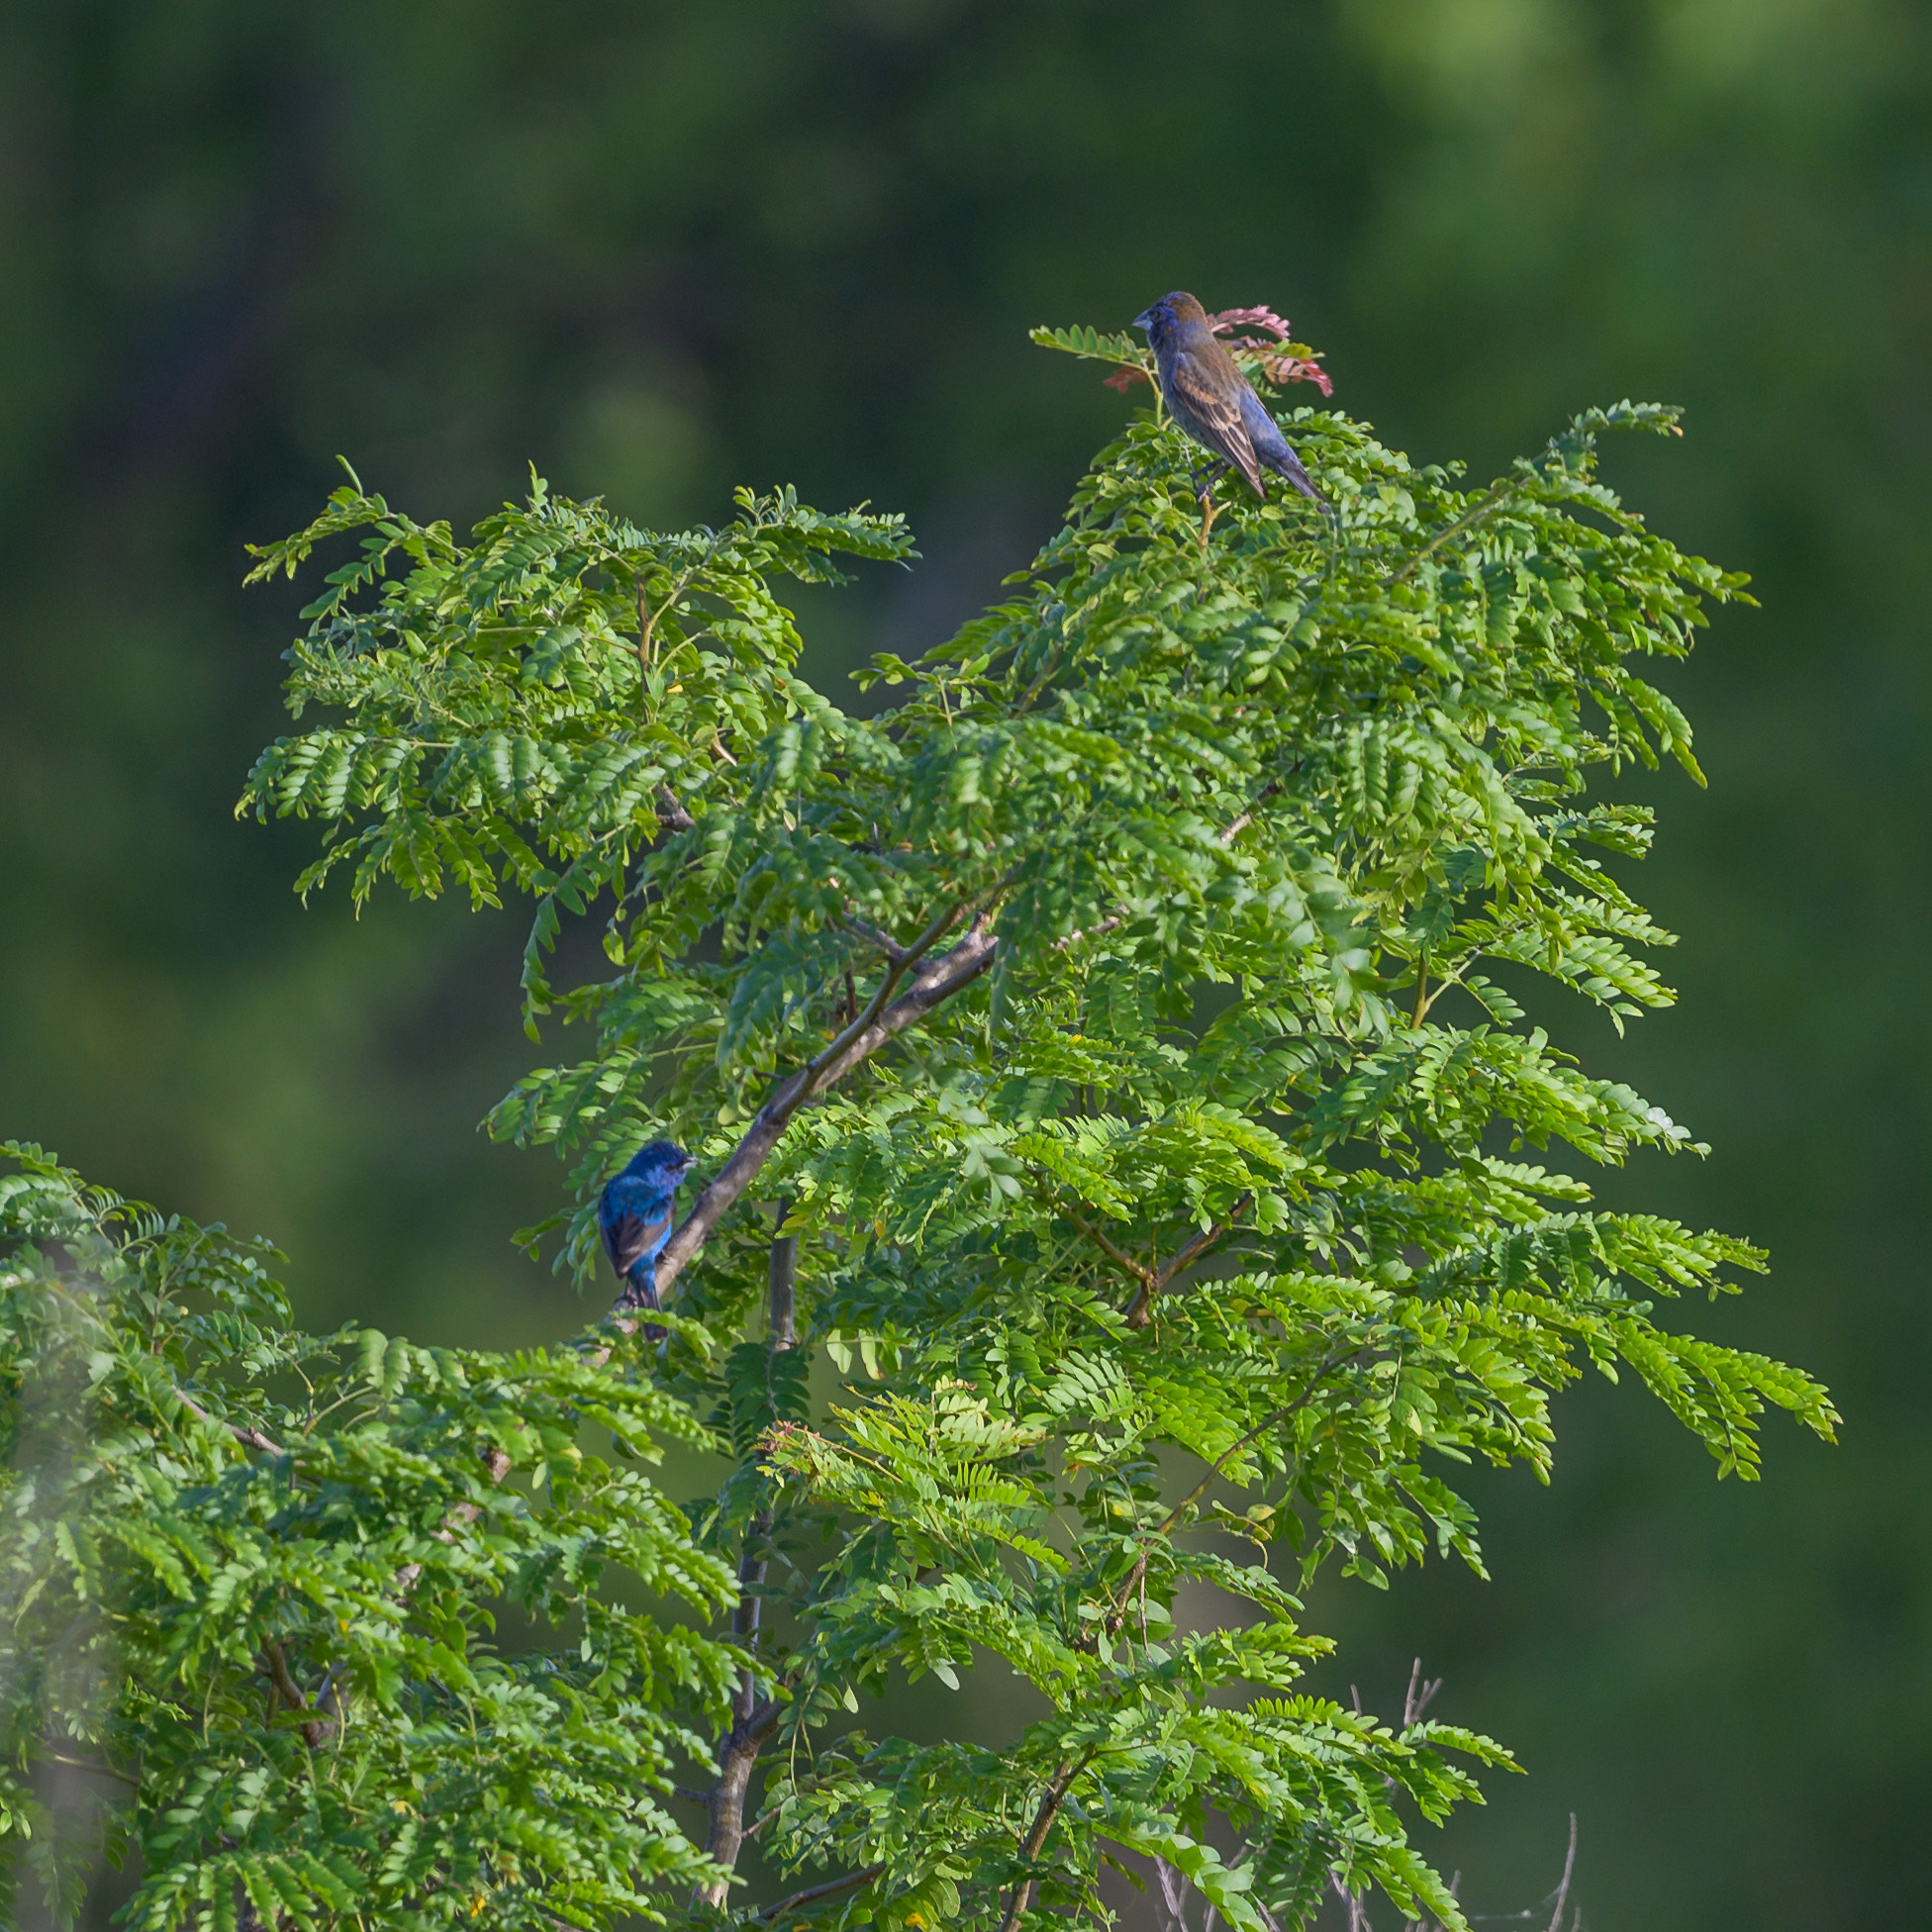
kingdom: Animalia
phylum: Chordata
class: Aves
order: Passeriformes
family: Cardinalidae
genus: Passerina
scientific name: Passerina cyanea
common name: Indigo bunting
